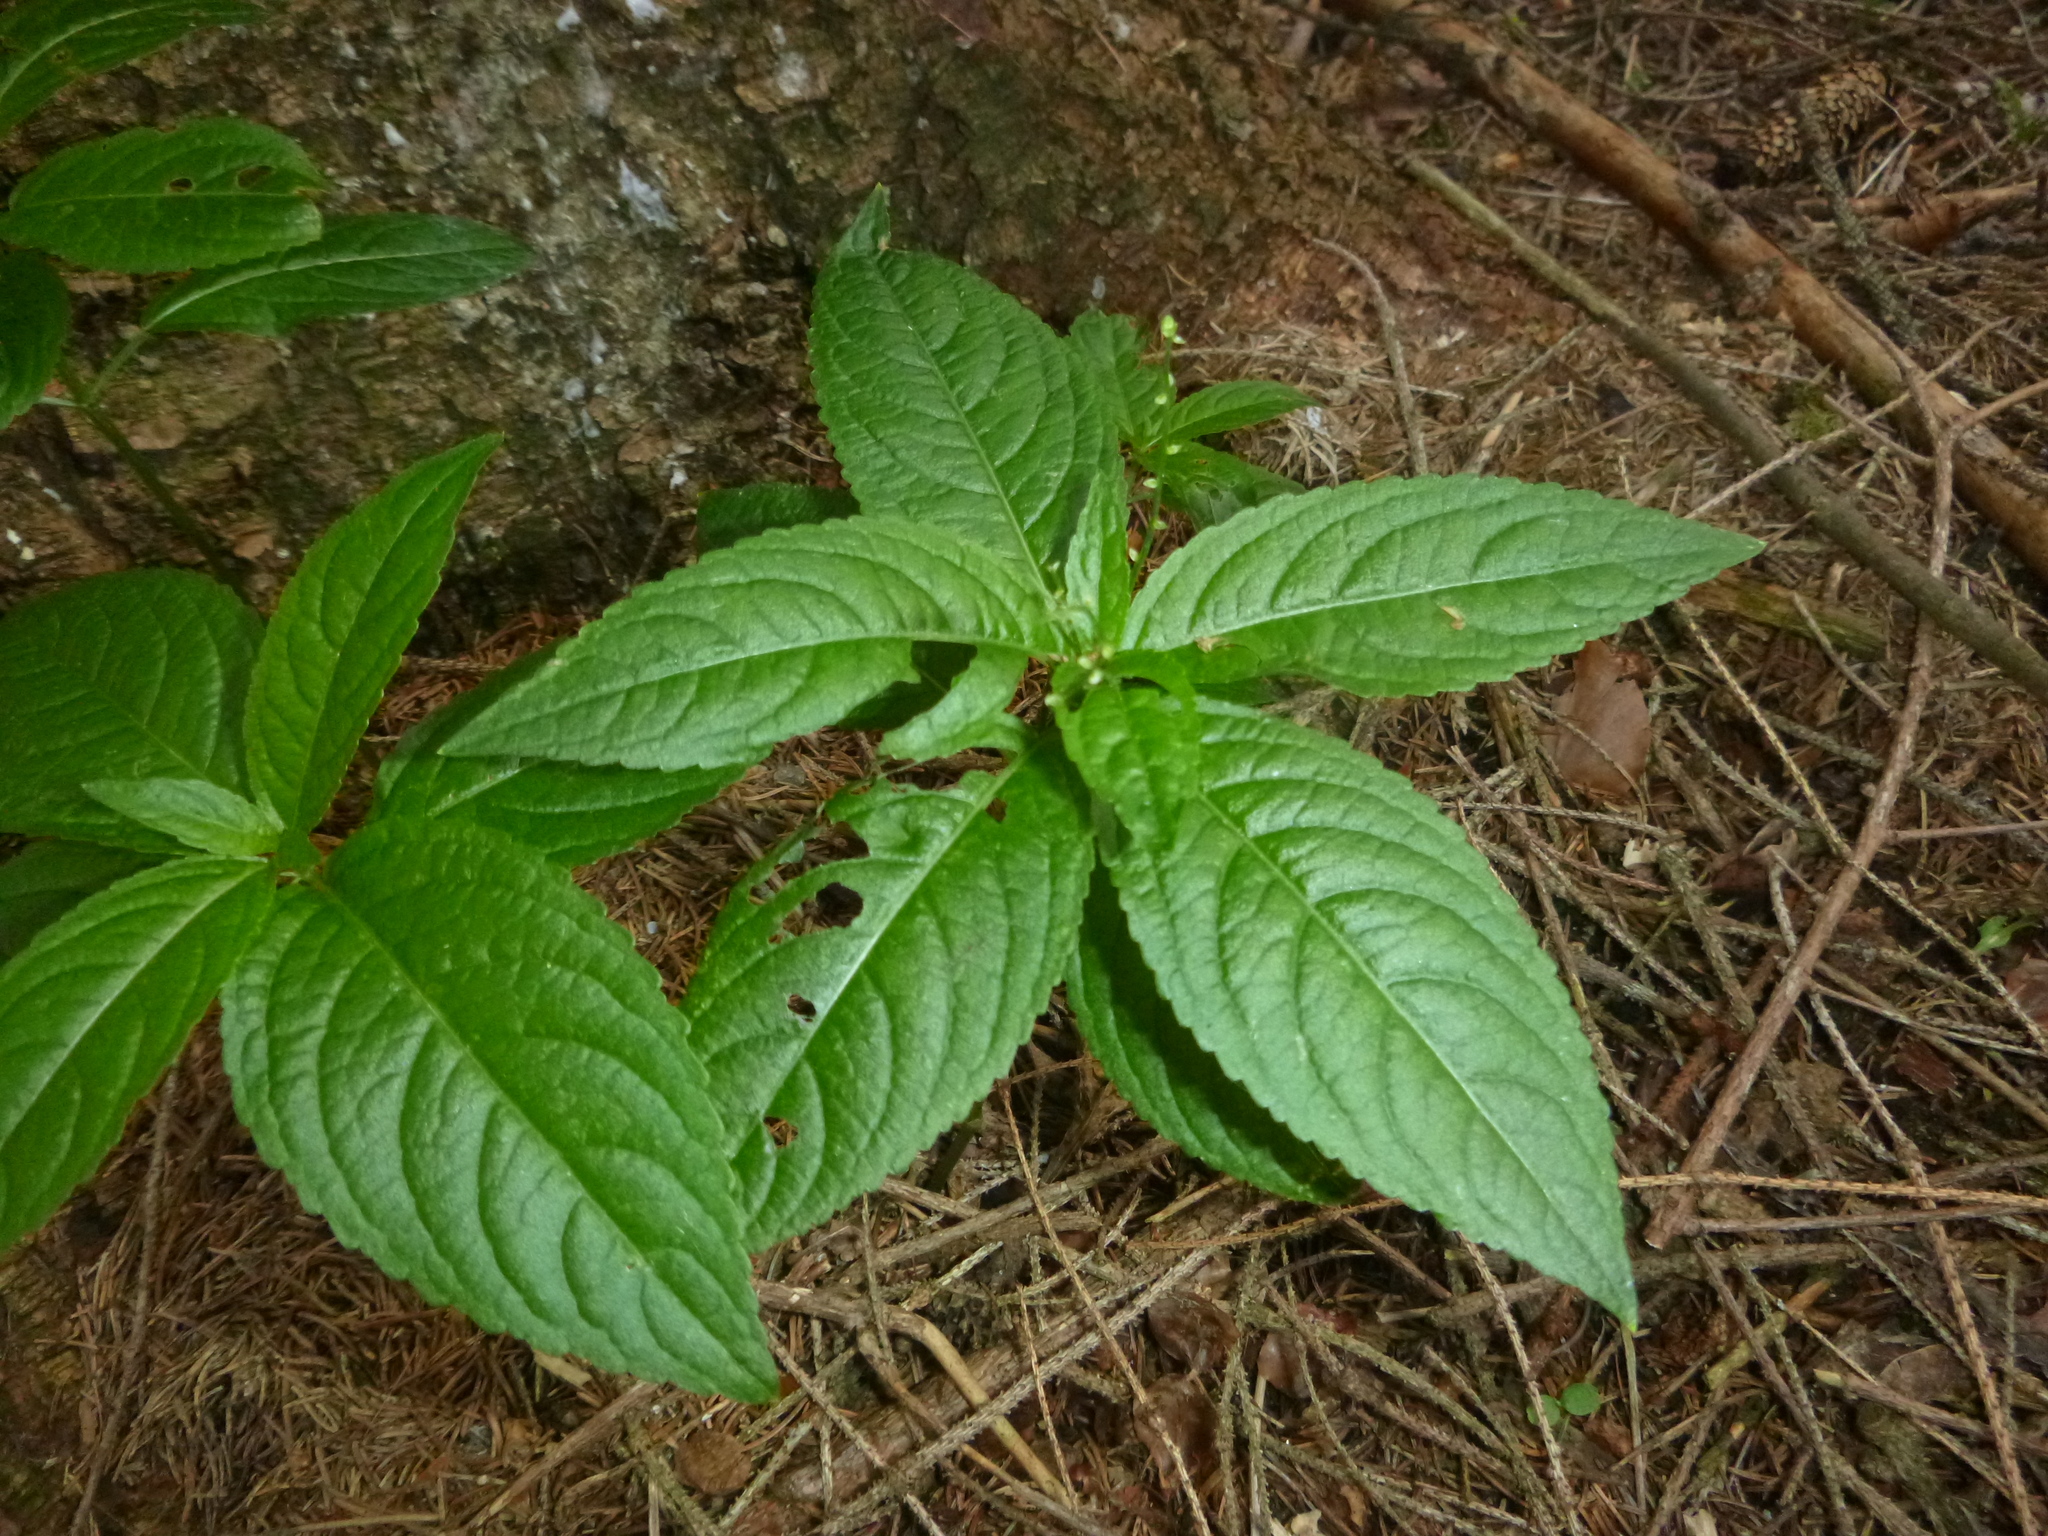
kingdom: Plantae
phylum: Tracheophyta
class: Magnoliopsida
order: Malpighiales
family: Euphorbiaceae
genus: Mercurialis
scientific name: Mercurialis perennis
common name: Dog mercury
